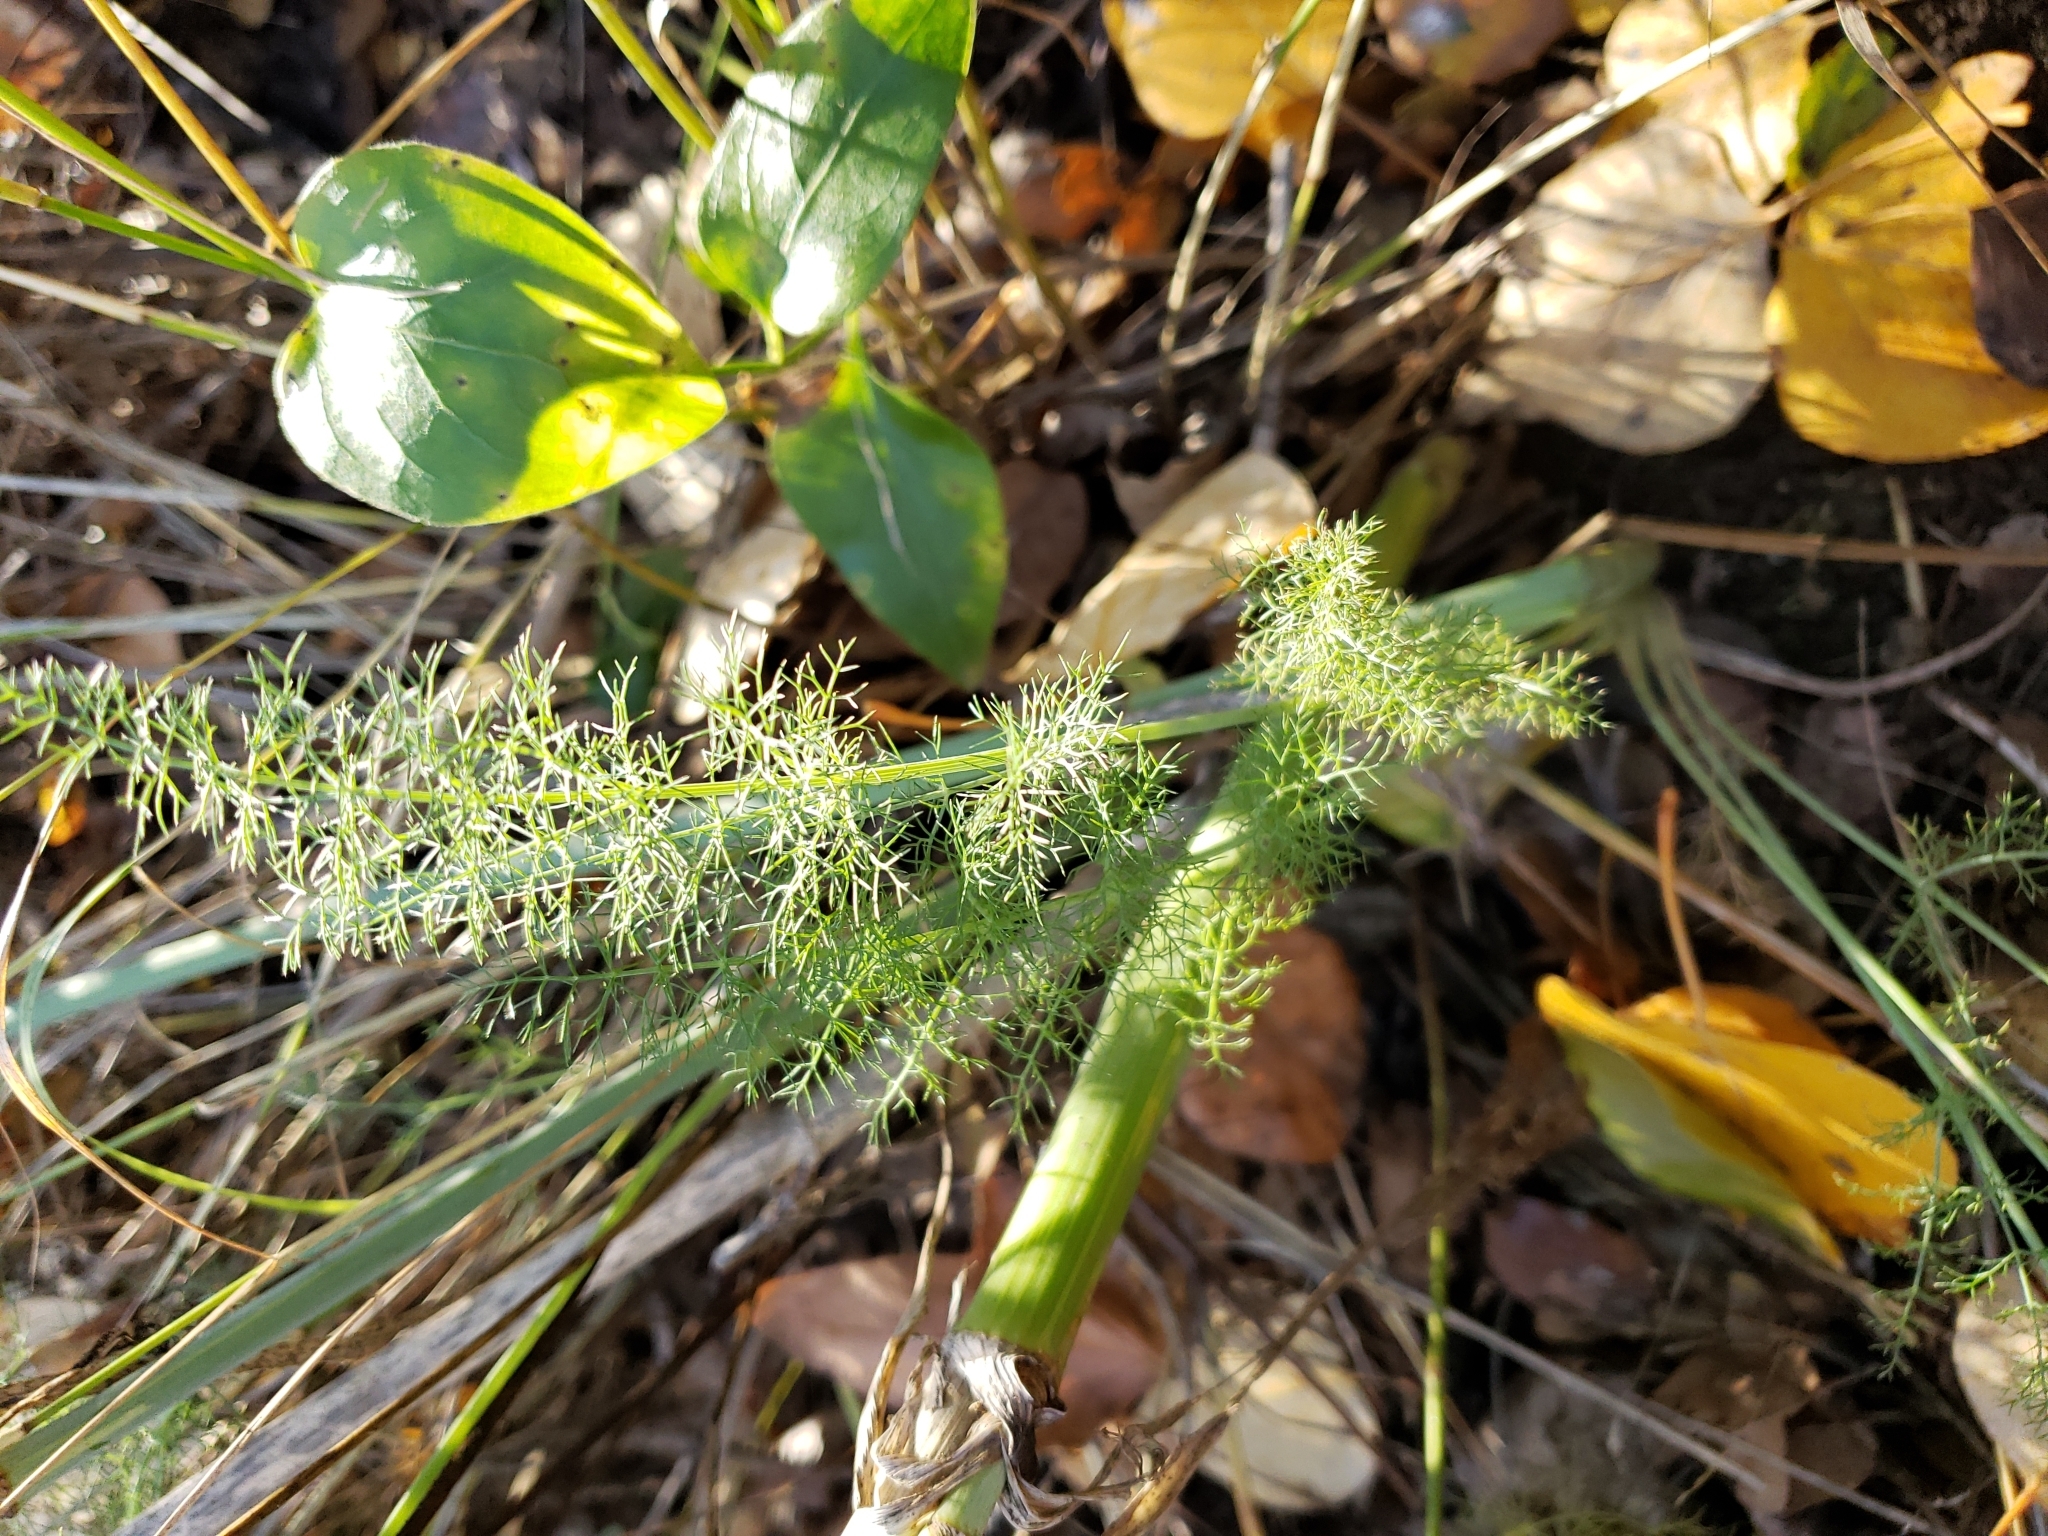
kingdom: Plantae
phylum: Tracheophyta
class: Magnoliopsida
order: Apiales
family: Apiaceae
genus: Foeniculum
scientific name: Foeniculum vulgare
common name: Fennel
